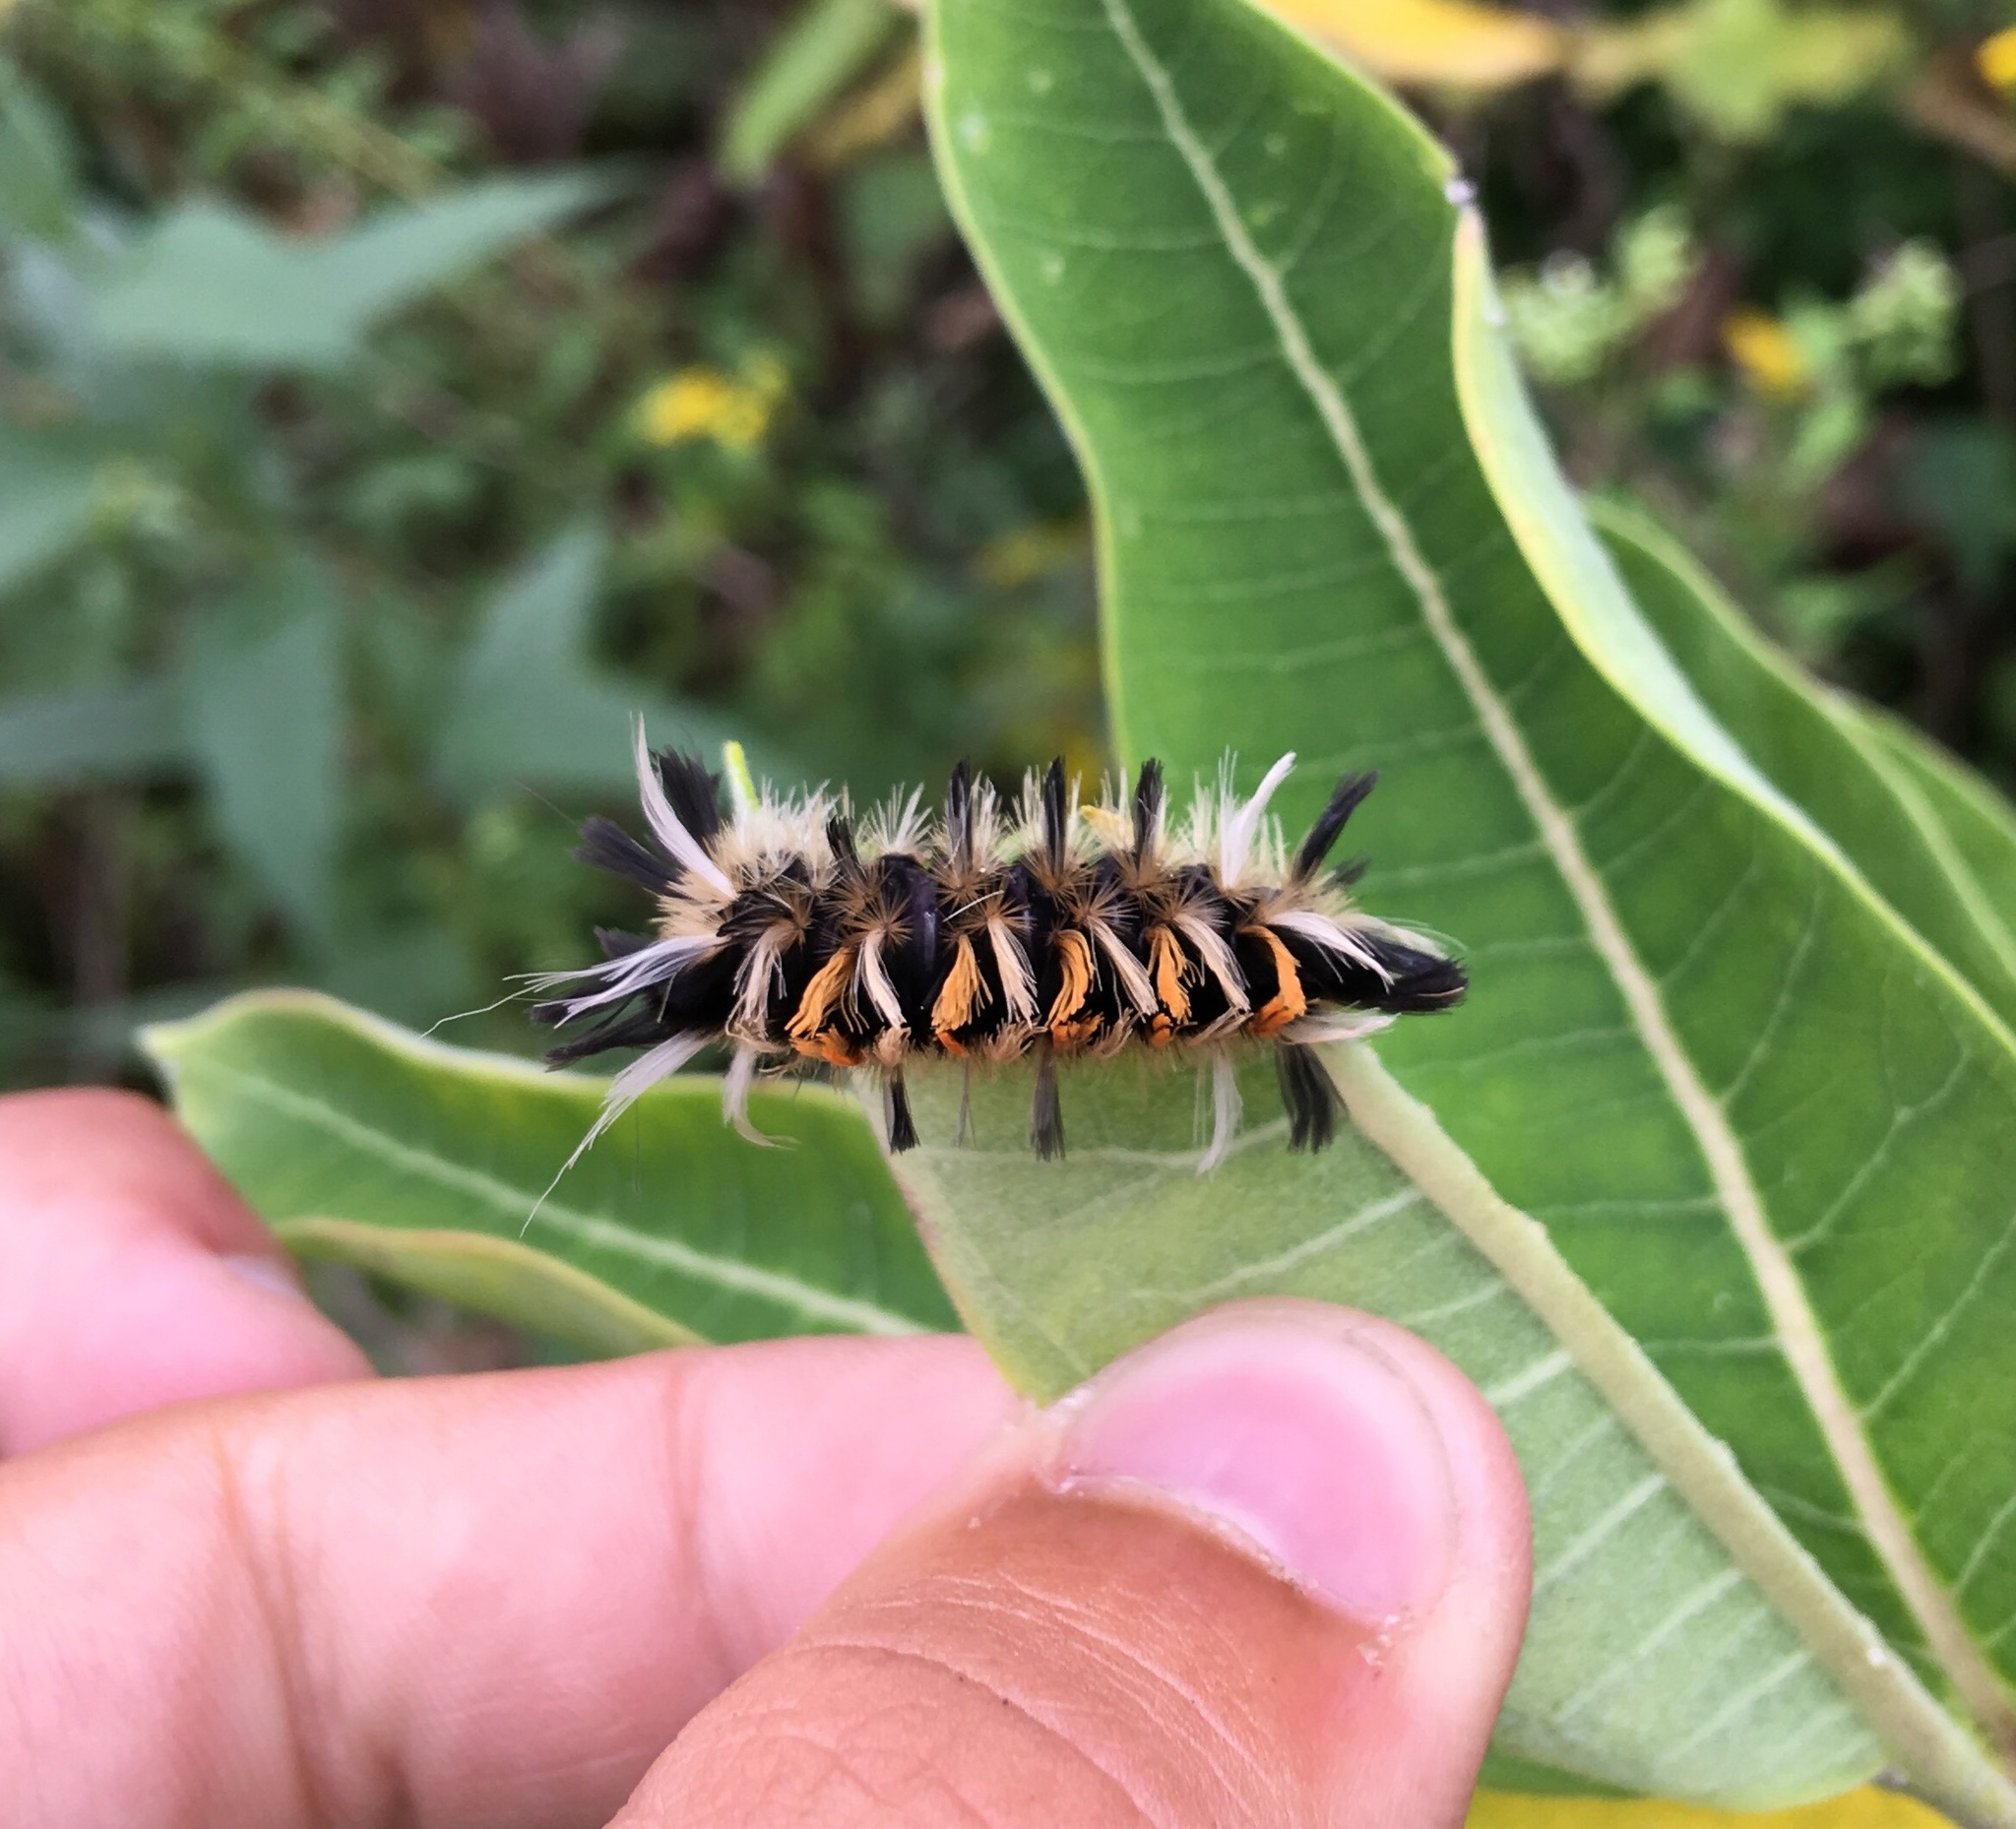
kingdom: Animalia
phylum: Arthropoda
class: Insecta
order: Lepidoptera
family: Erebidae
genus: Euchaetes
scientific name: Euchaetes egle
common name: Milkweed tussock moth
